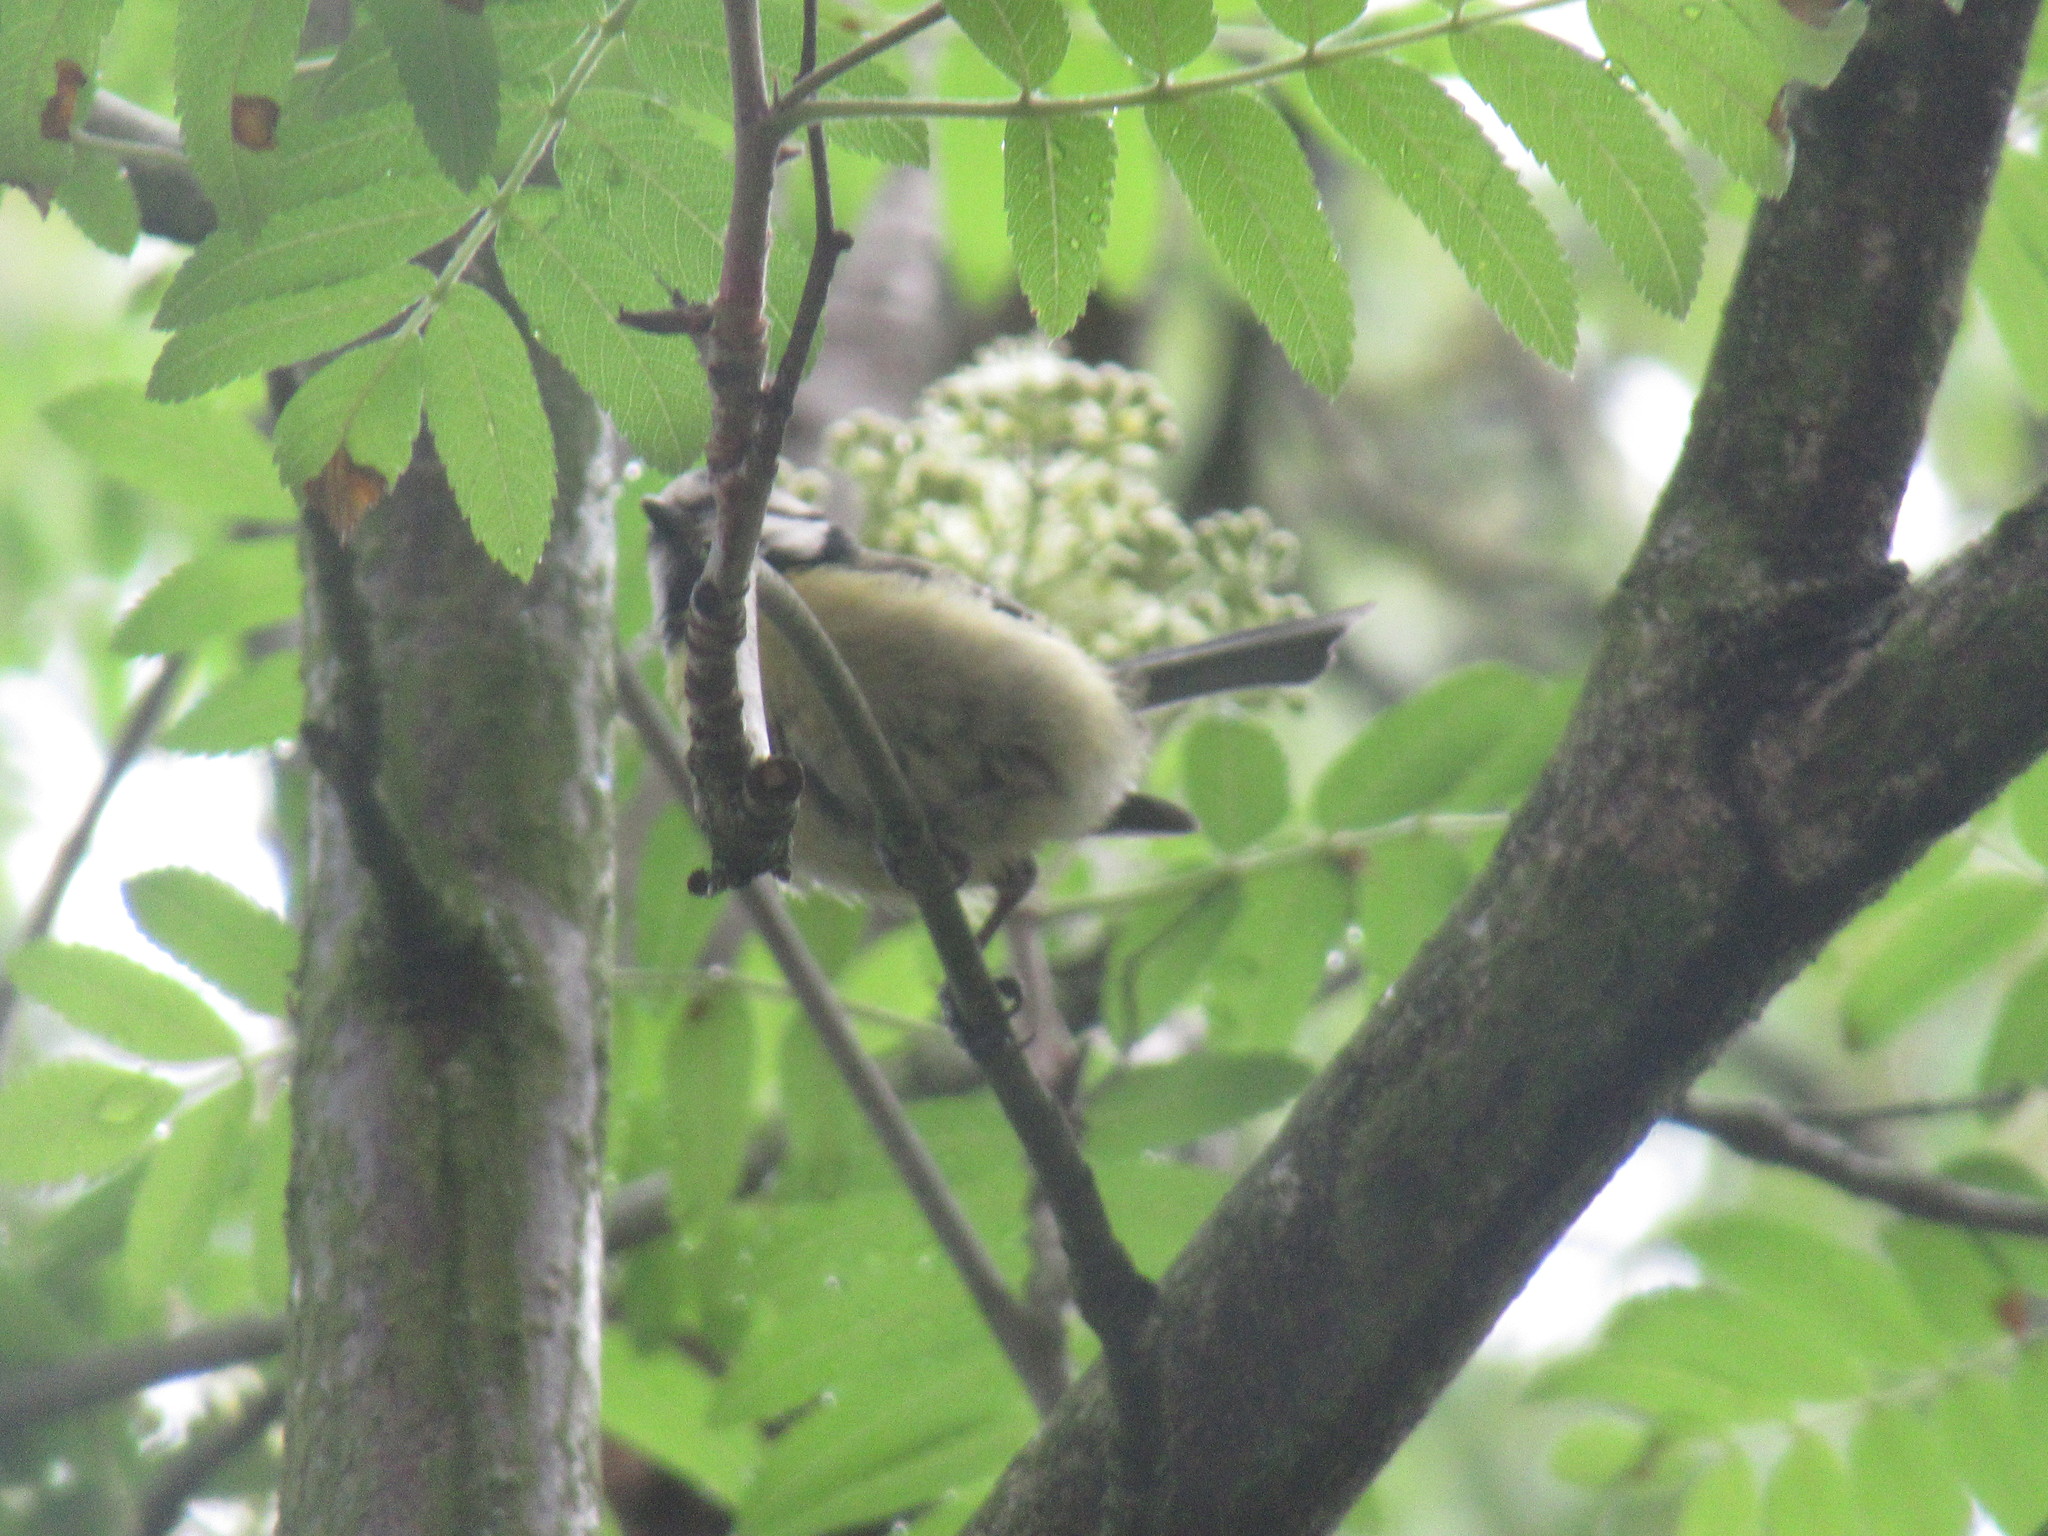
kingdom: Animalia
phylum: Chordata
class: Aves
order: Passeriformes
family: Paridae
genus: Cyanistes
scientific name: Cyanistes caeruleus
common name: Eurasian blue tit
